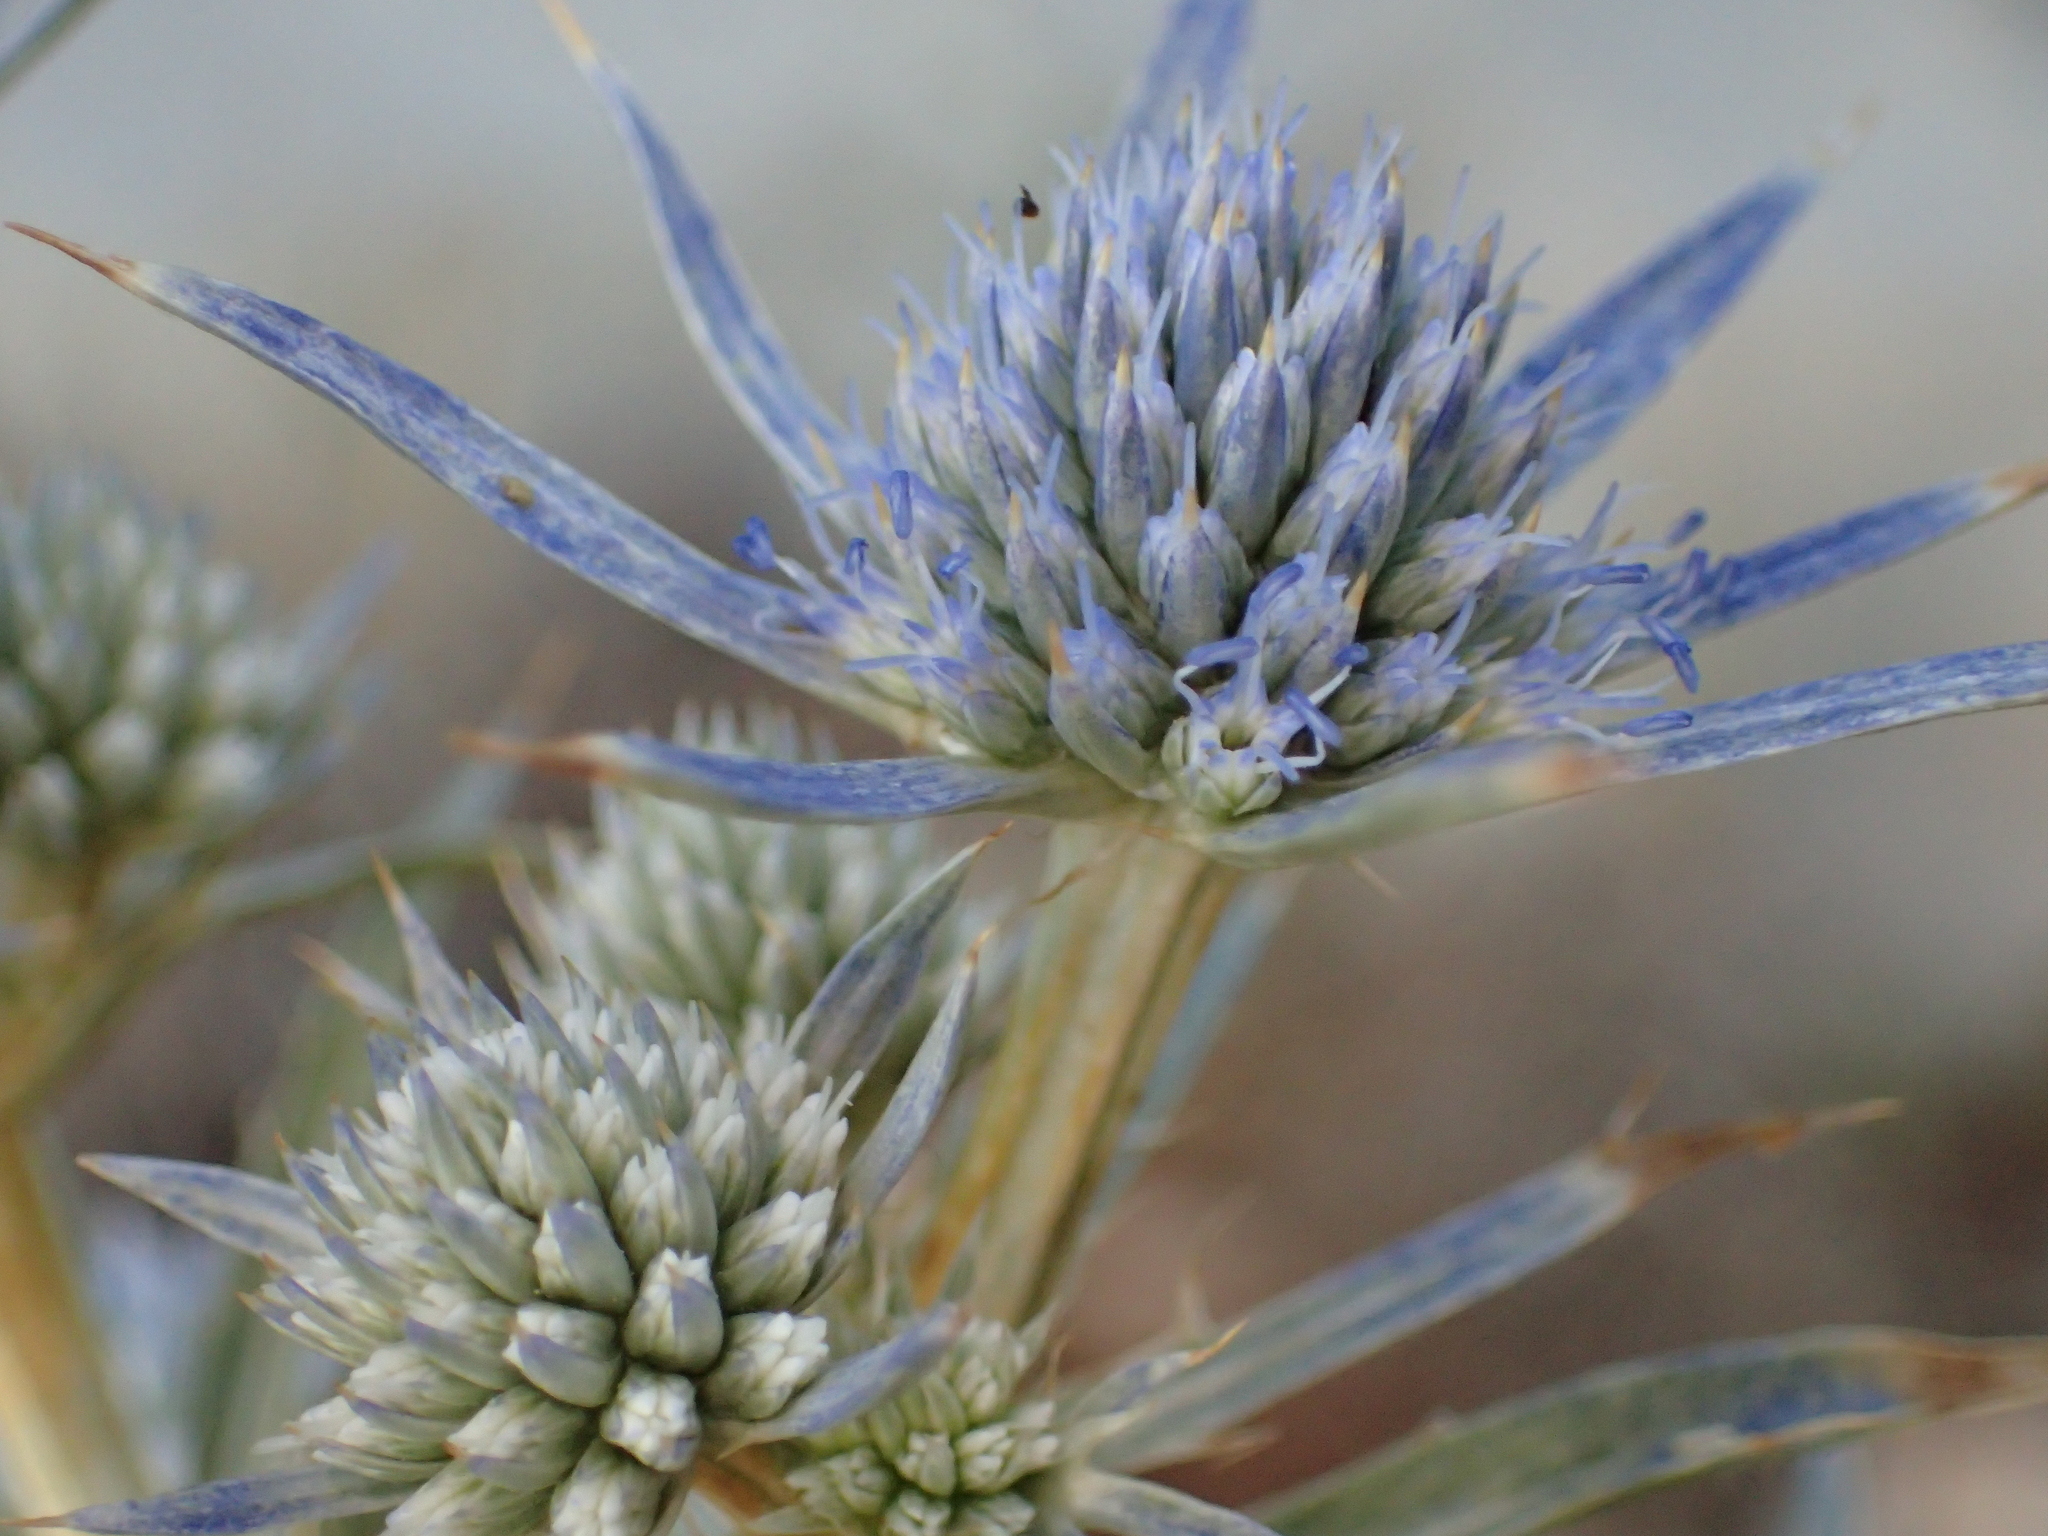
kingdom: Plantae
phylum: Tracheophyta
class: Magnoliopsida
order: Apiales
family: Apiaceae
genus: Eryngium
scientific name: Eryngium amethystinum
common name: Amethyst eryngo
